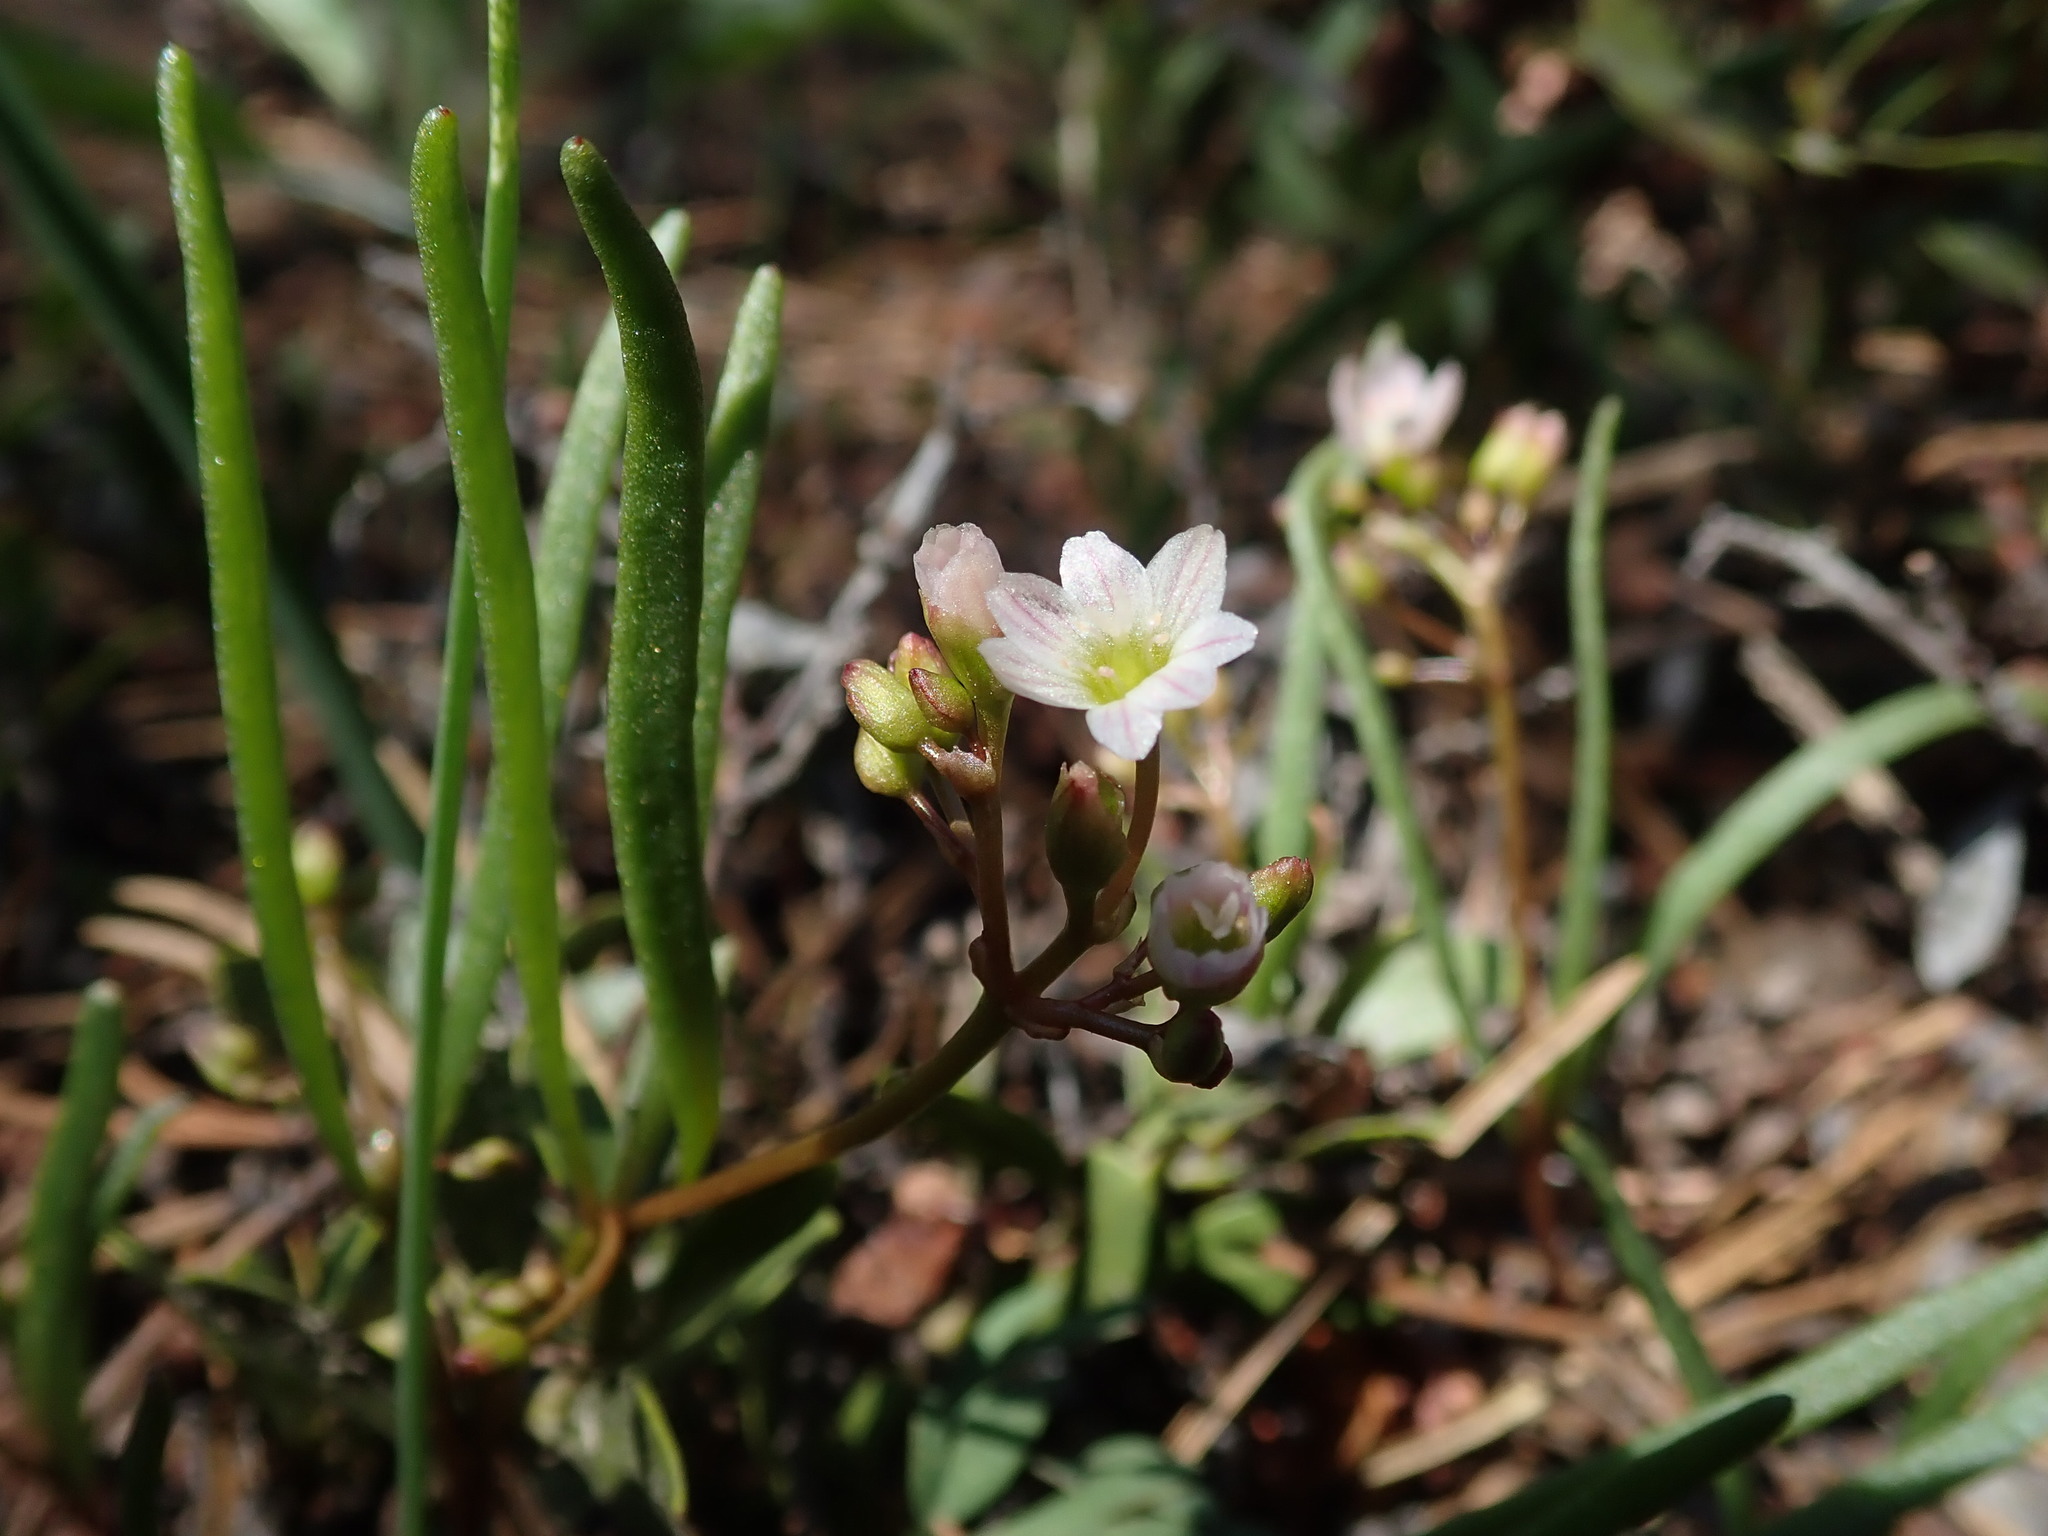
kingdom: Plantae
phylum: Tracheophyta
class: Magnoliopsida
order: Caryophyllales
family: Montiaceae
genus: Lewisia
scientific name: Lewisia triphylla
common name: Three-leaved bitterroot
